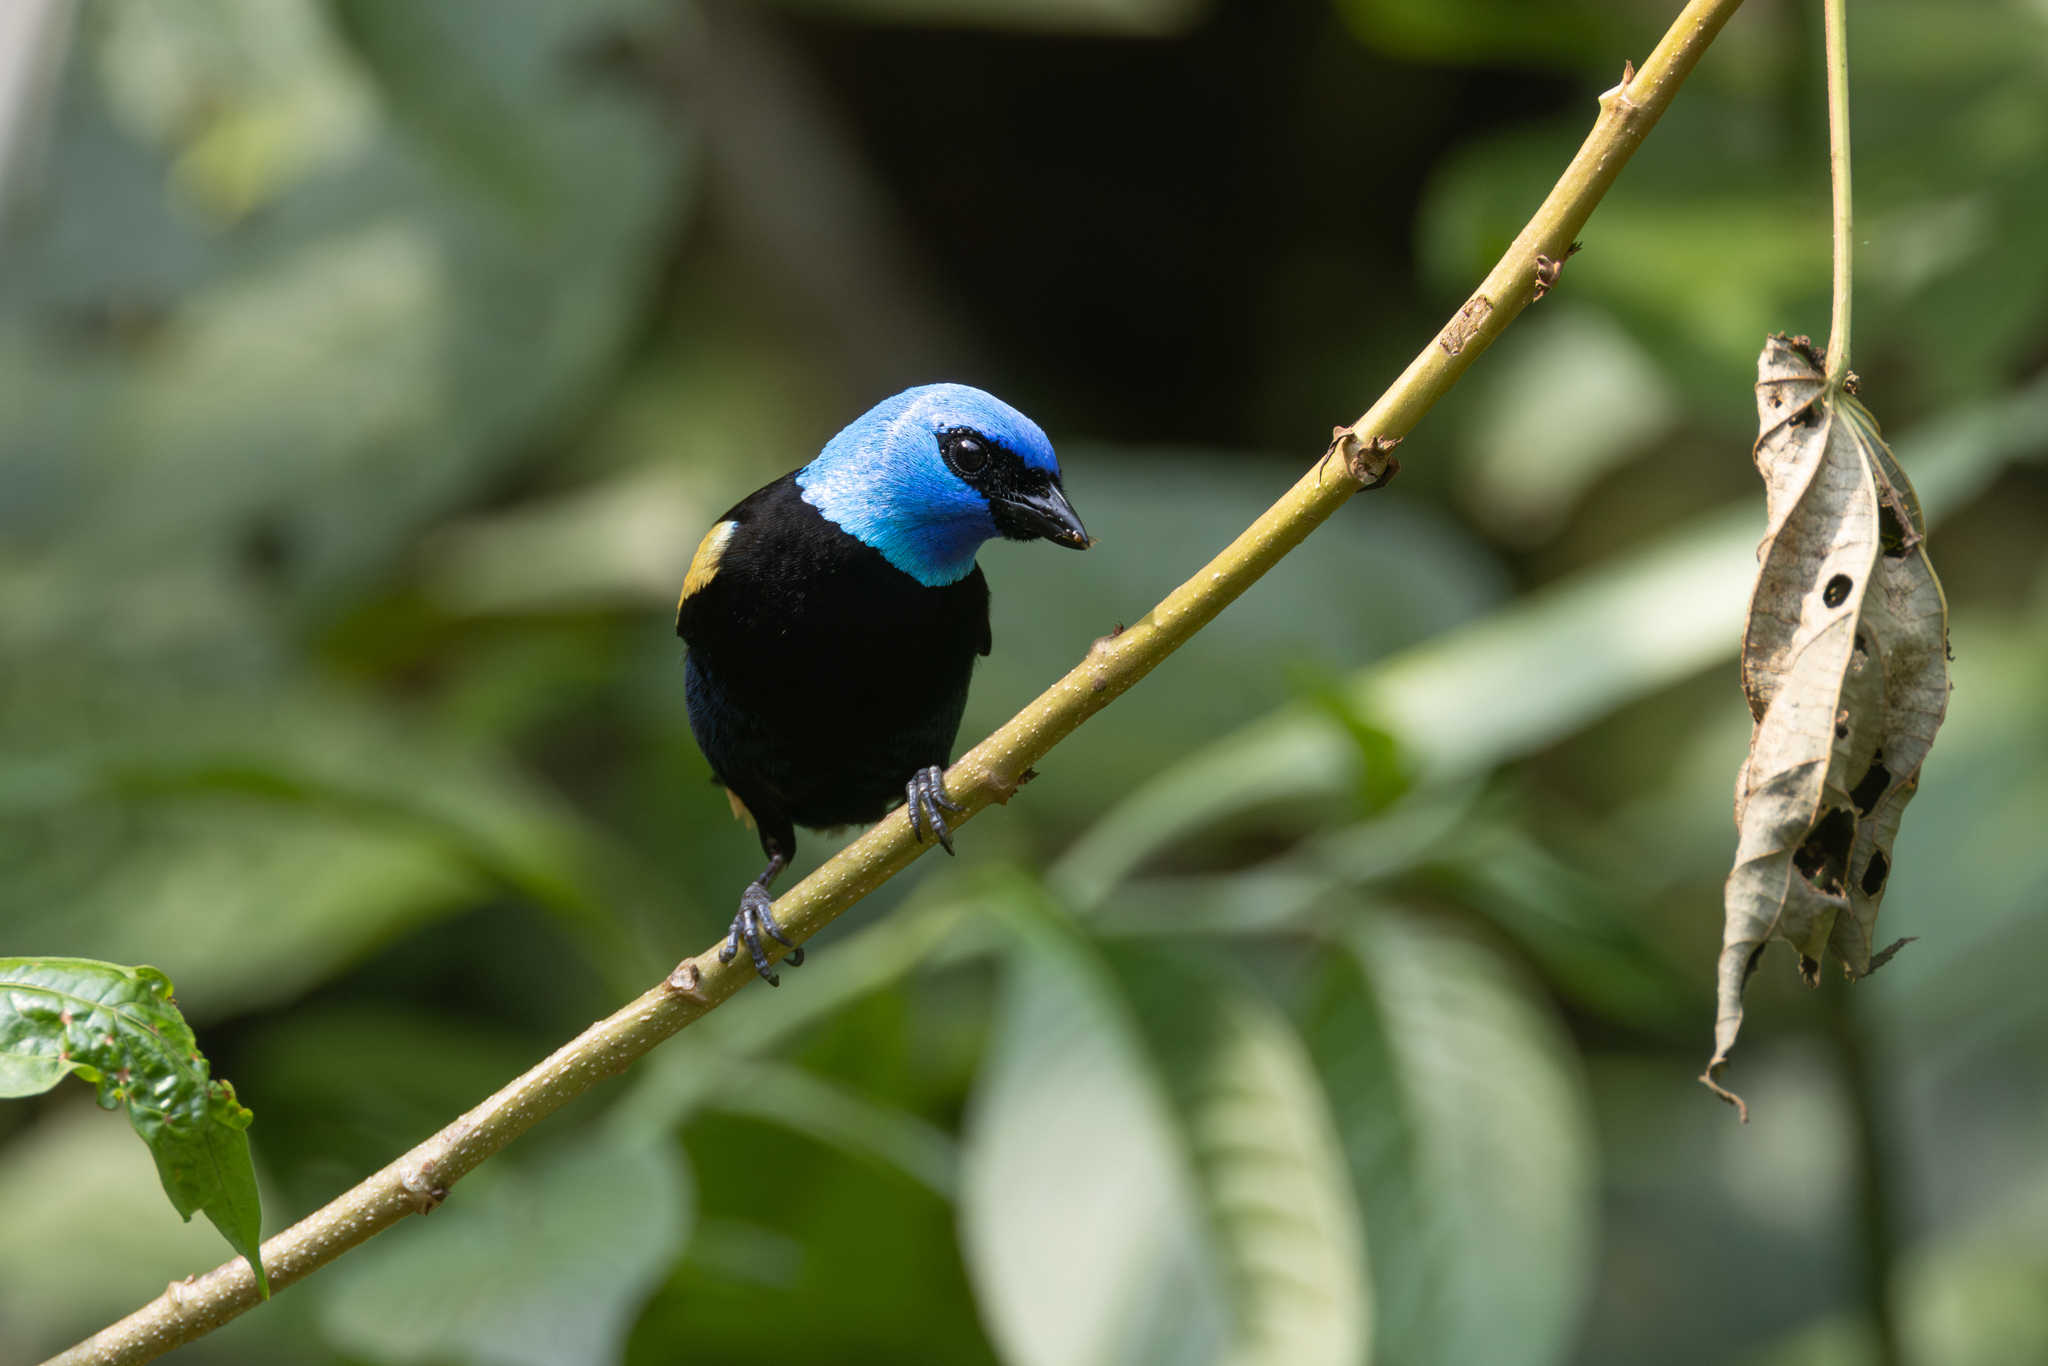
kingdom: Animalia
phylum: Chordata
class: Aves
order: Passeriformes
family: Thraupidae
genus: Stilpnia
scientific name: Stilpnia cyanicollis
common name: Blue-necked tanager
